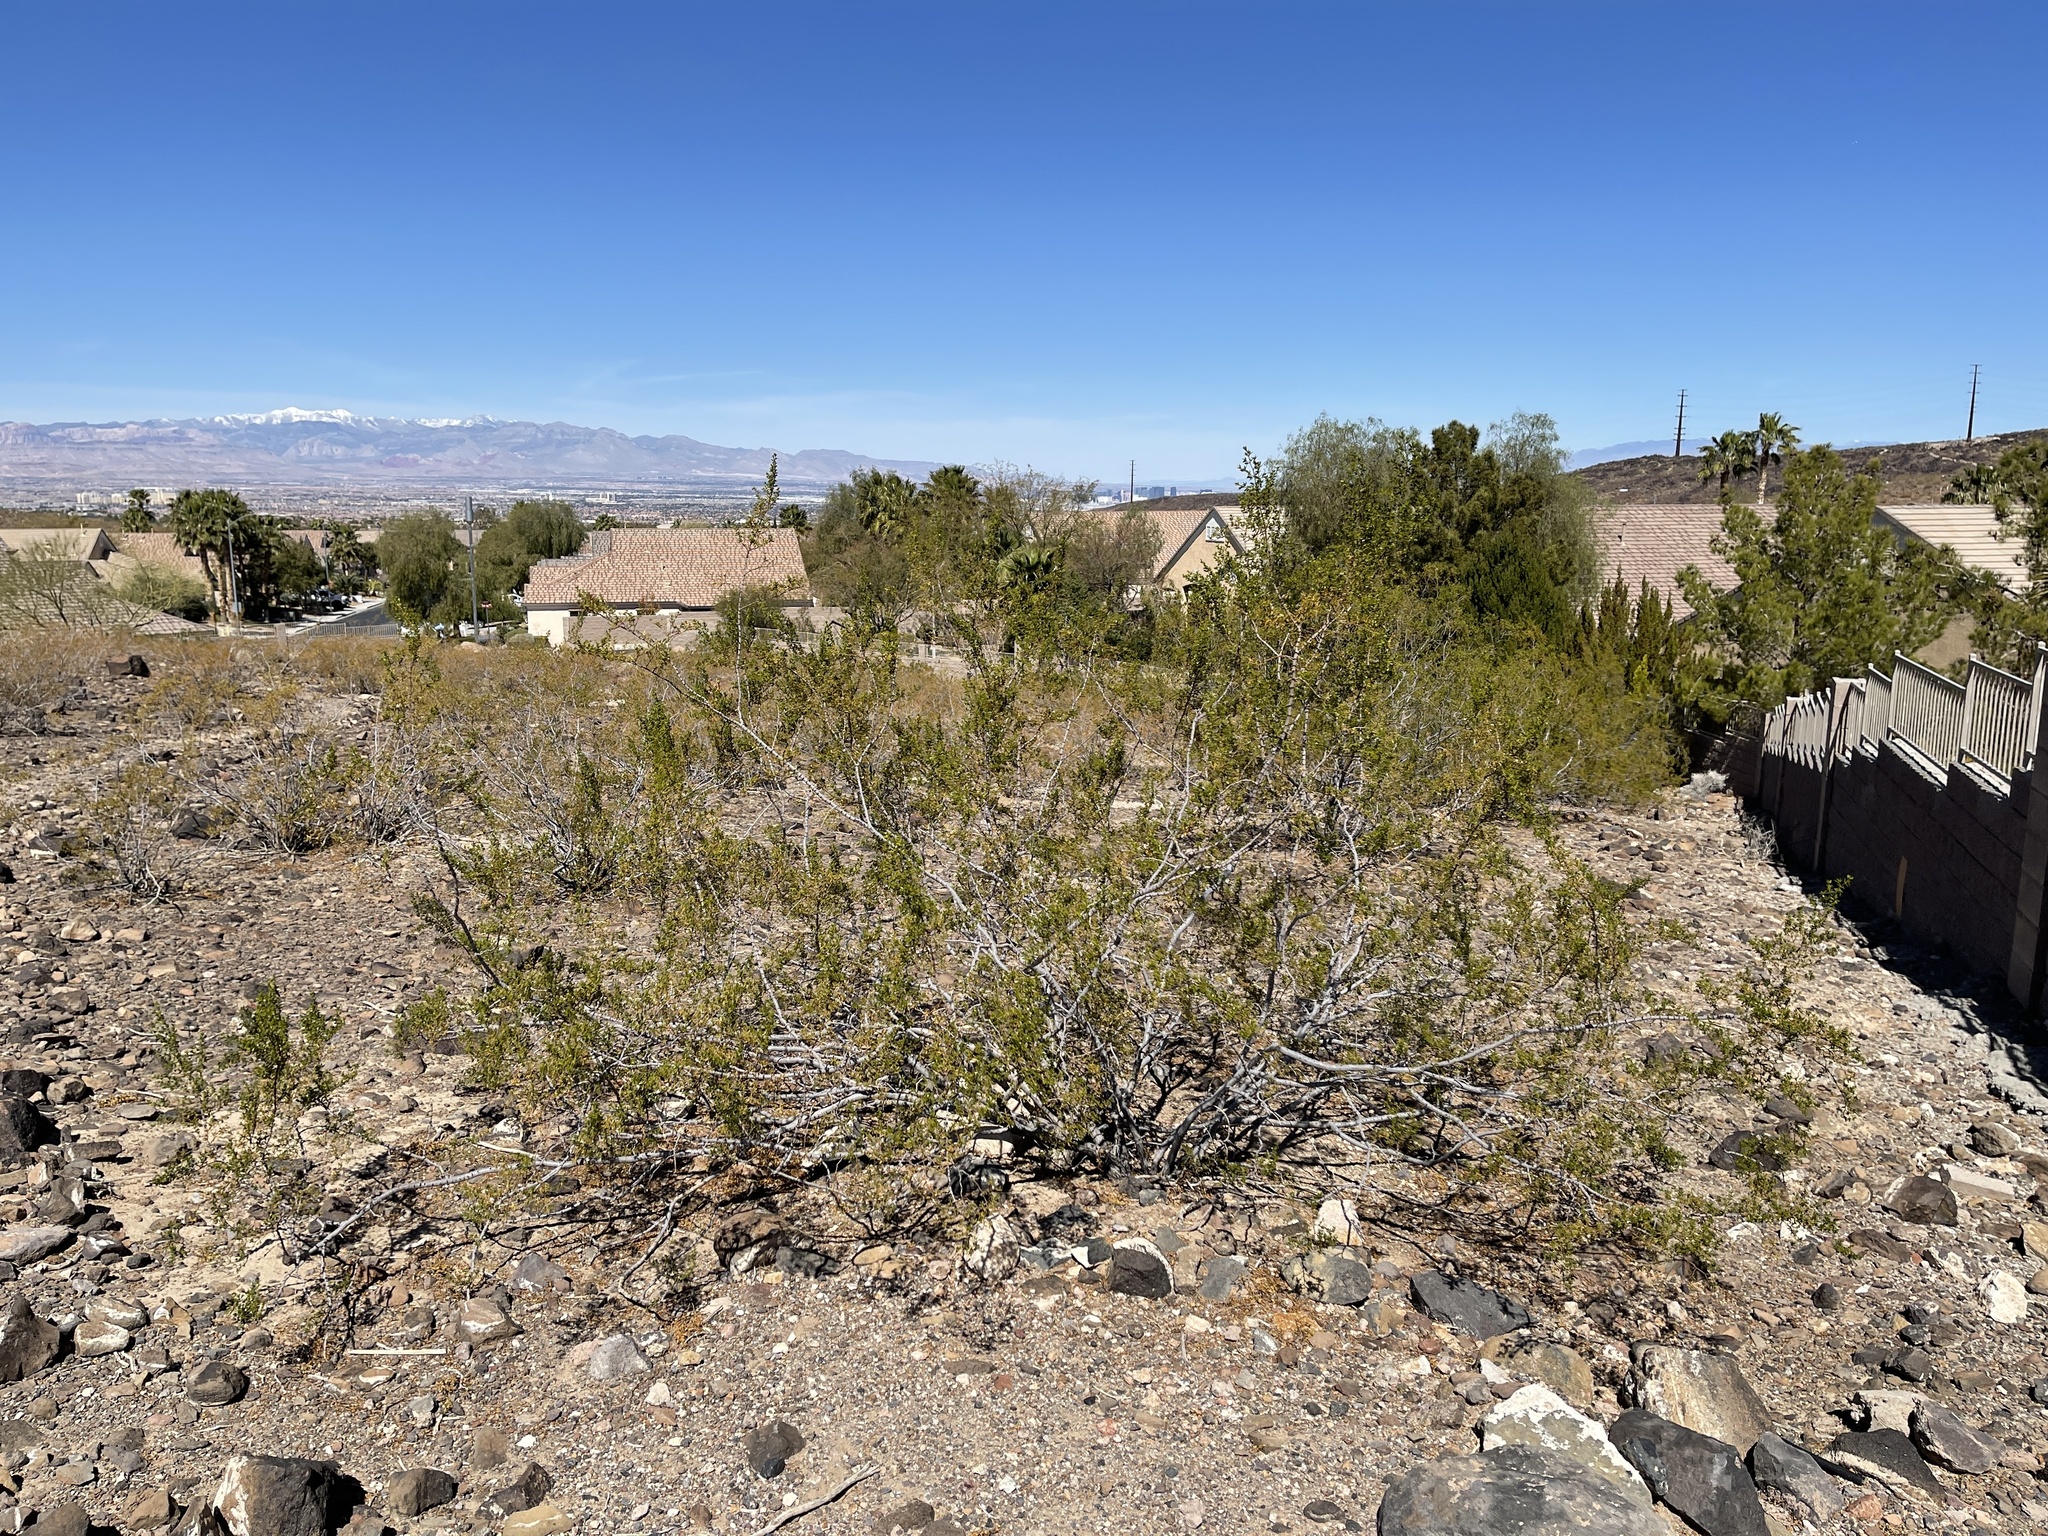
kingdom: Plantae
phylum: Tracheophyta
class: Magnoliopsida
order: Zygophyllales
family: Zygophyllaceae
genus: Larrea
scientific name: Larrea tridentata
